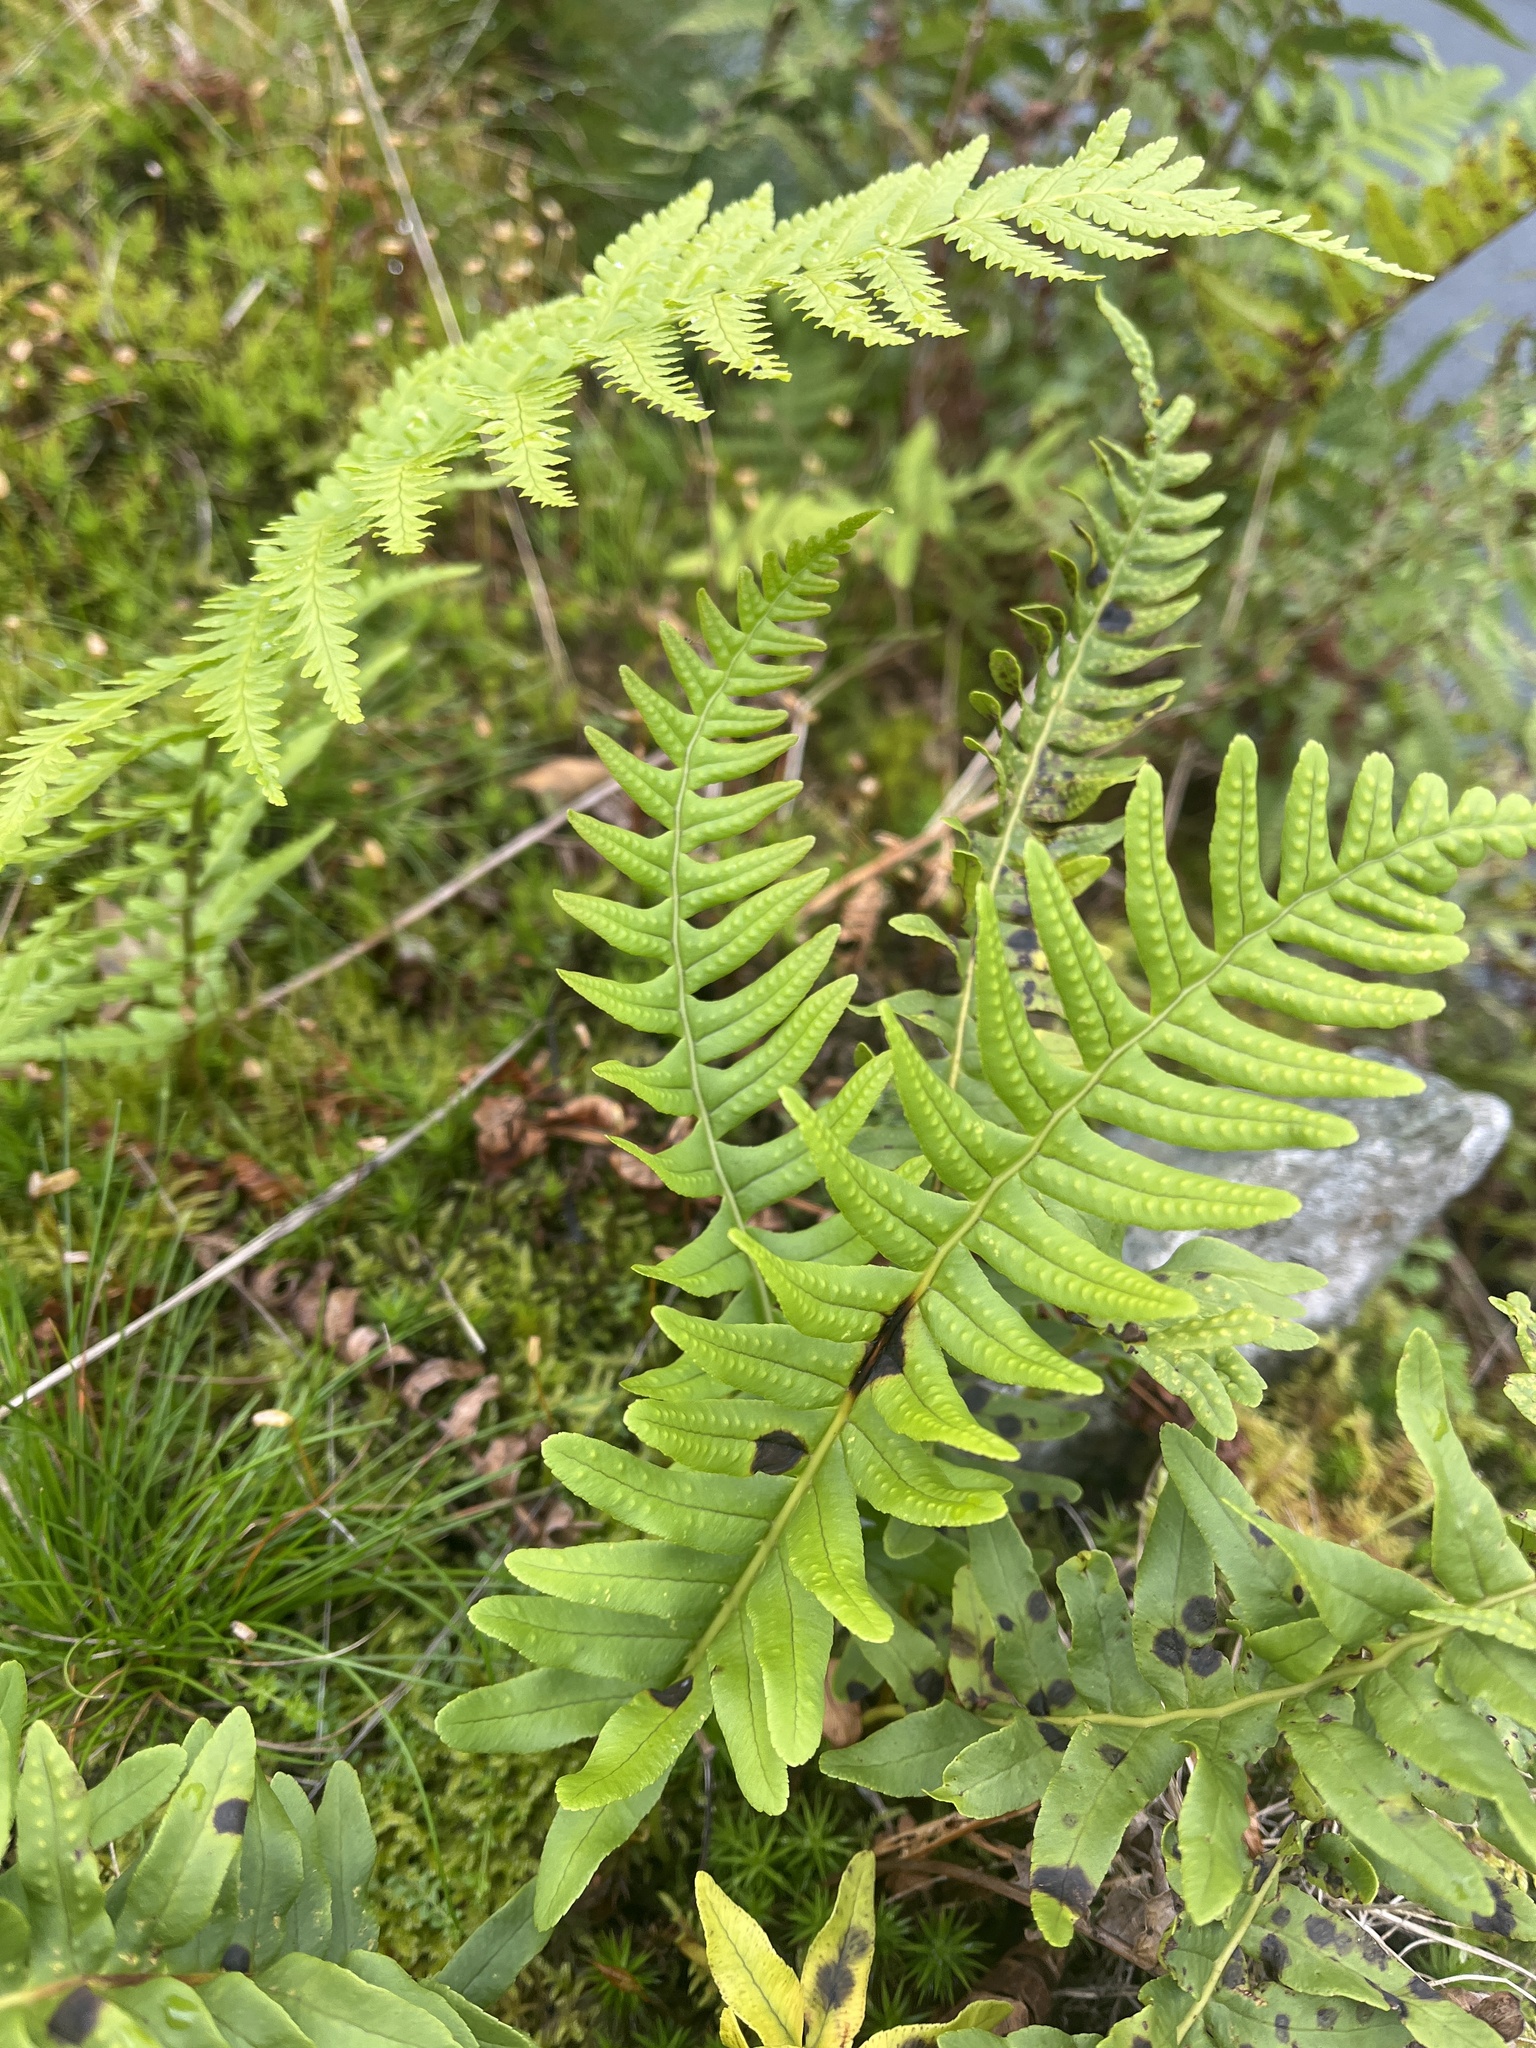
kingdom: Fungi
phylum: Ascomycota
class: Sordariomycetes
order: Xylariales
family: Xylariaceae
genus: Plectosphaera
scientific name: Plectosphaera polypodii
